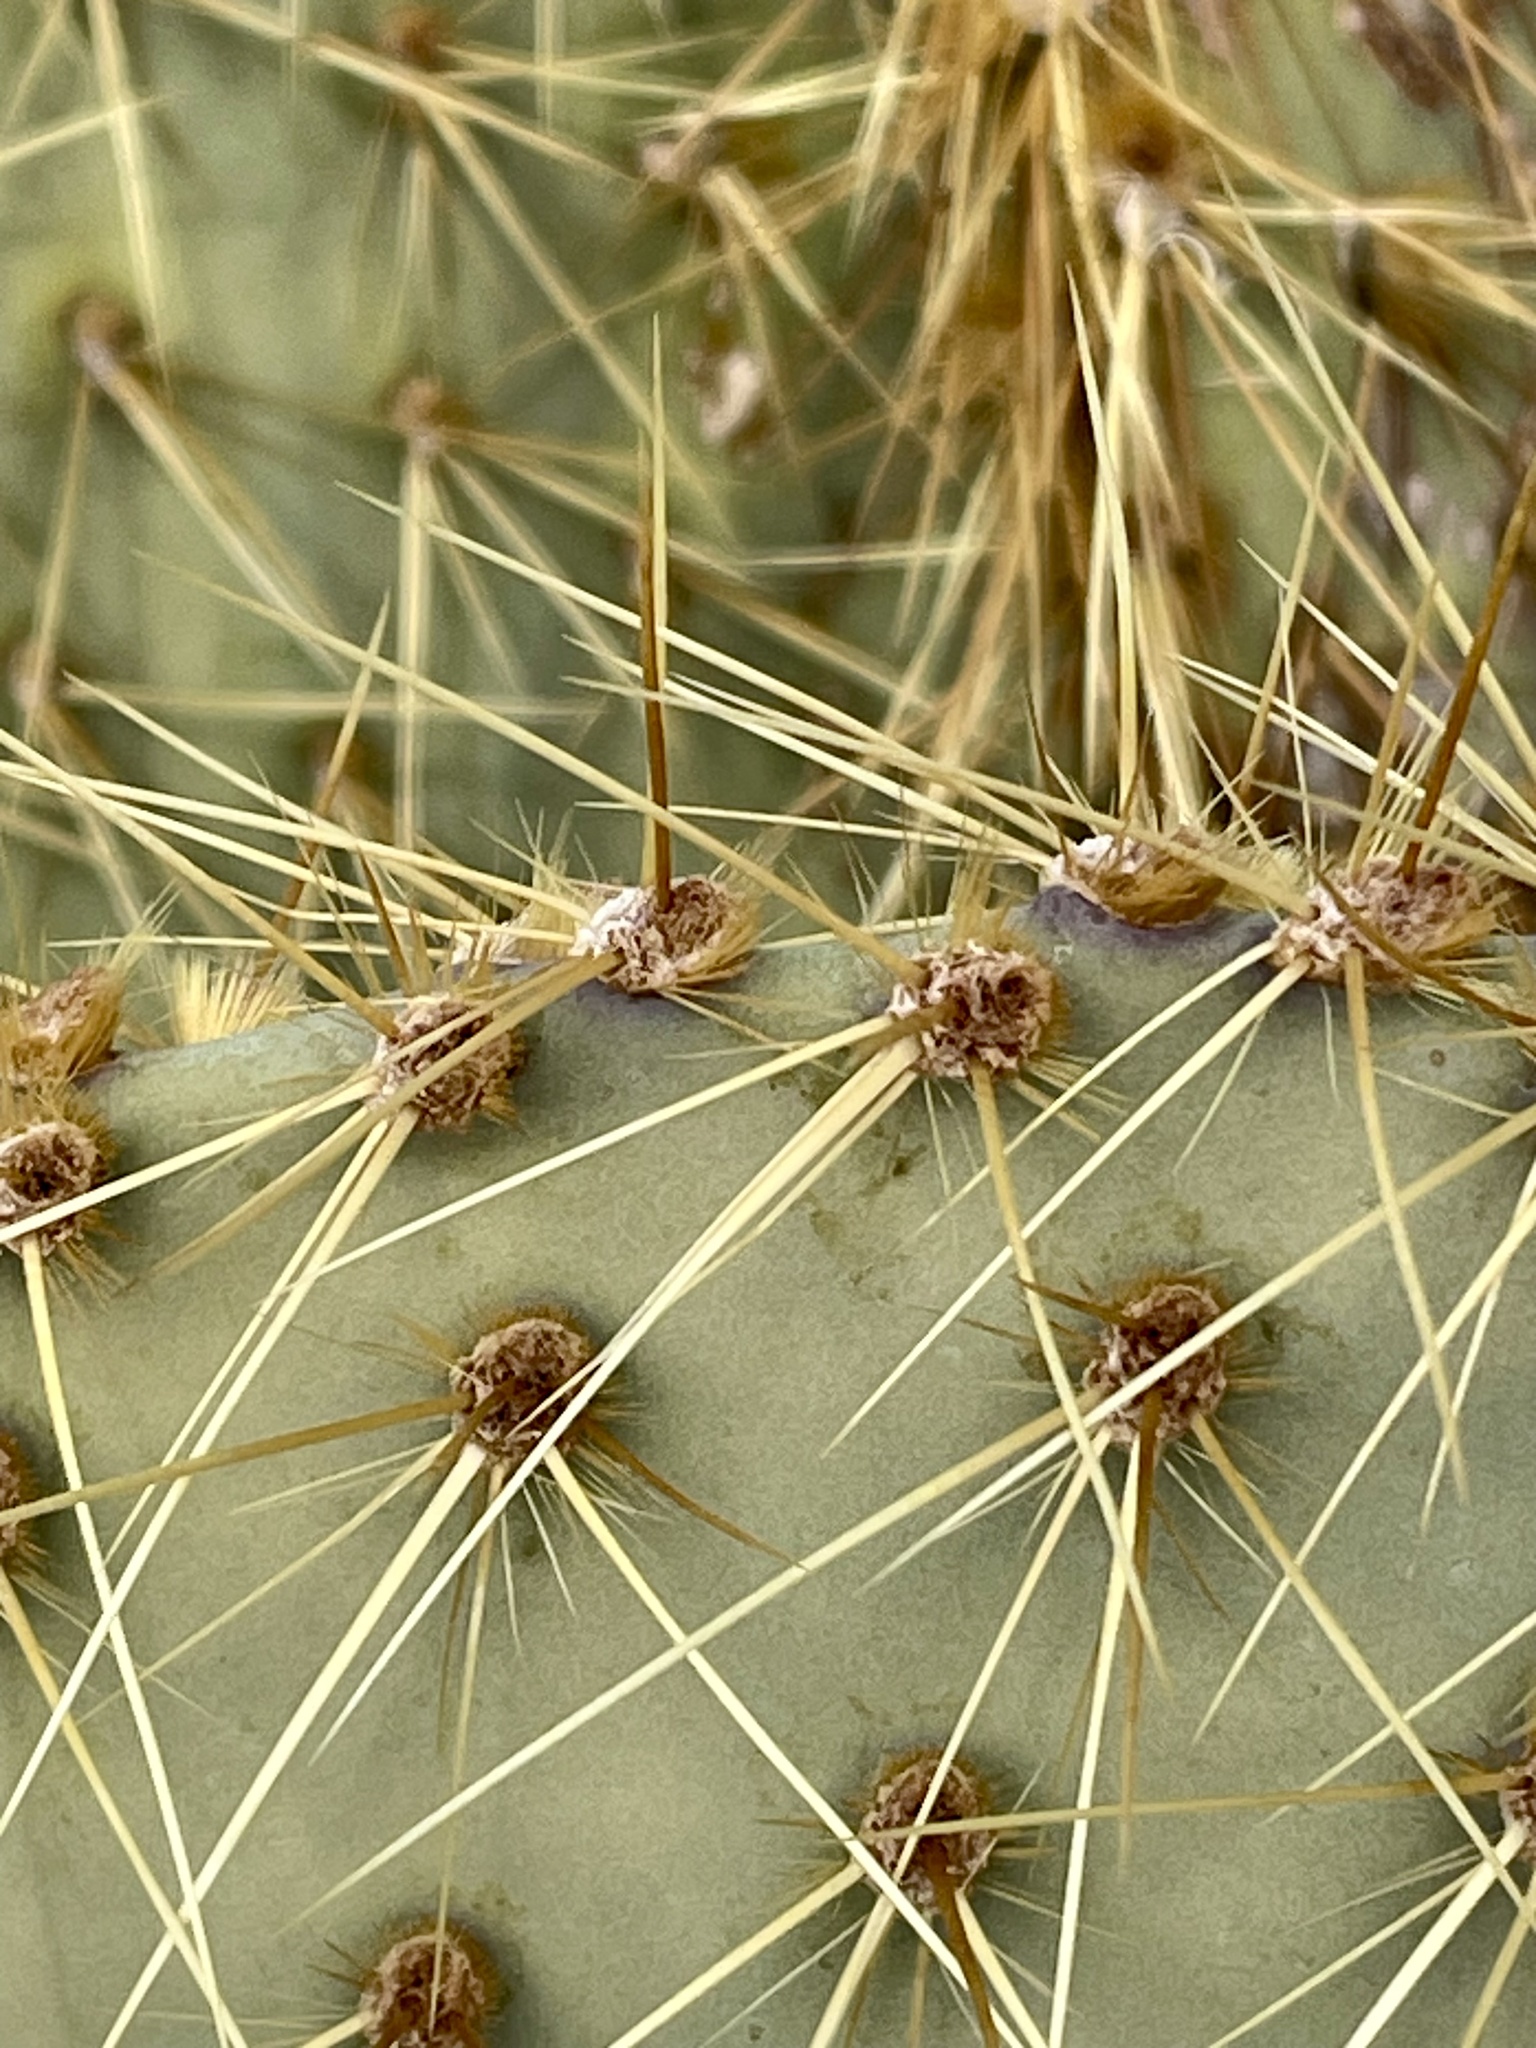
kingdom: Plantae
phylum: Tracheophyta
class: Magnoliopsida
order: Caryophyllales
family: Cactaceae
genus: Opuntia
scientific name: Opuntia chlorotica
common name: Dollar-joint prickly-pear
